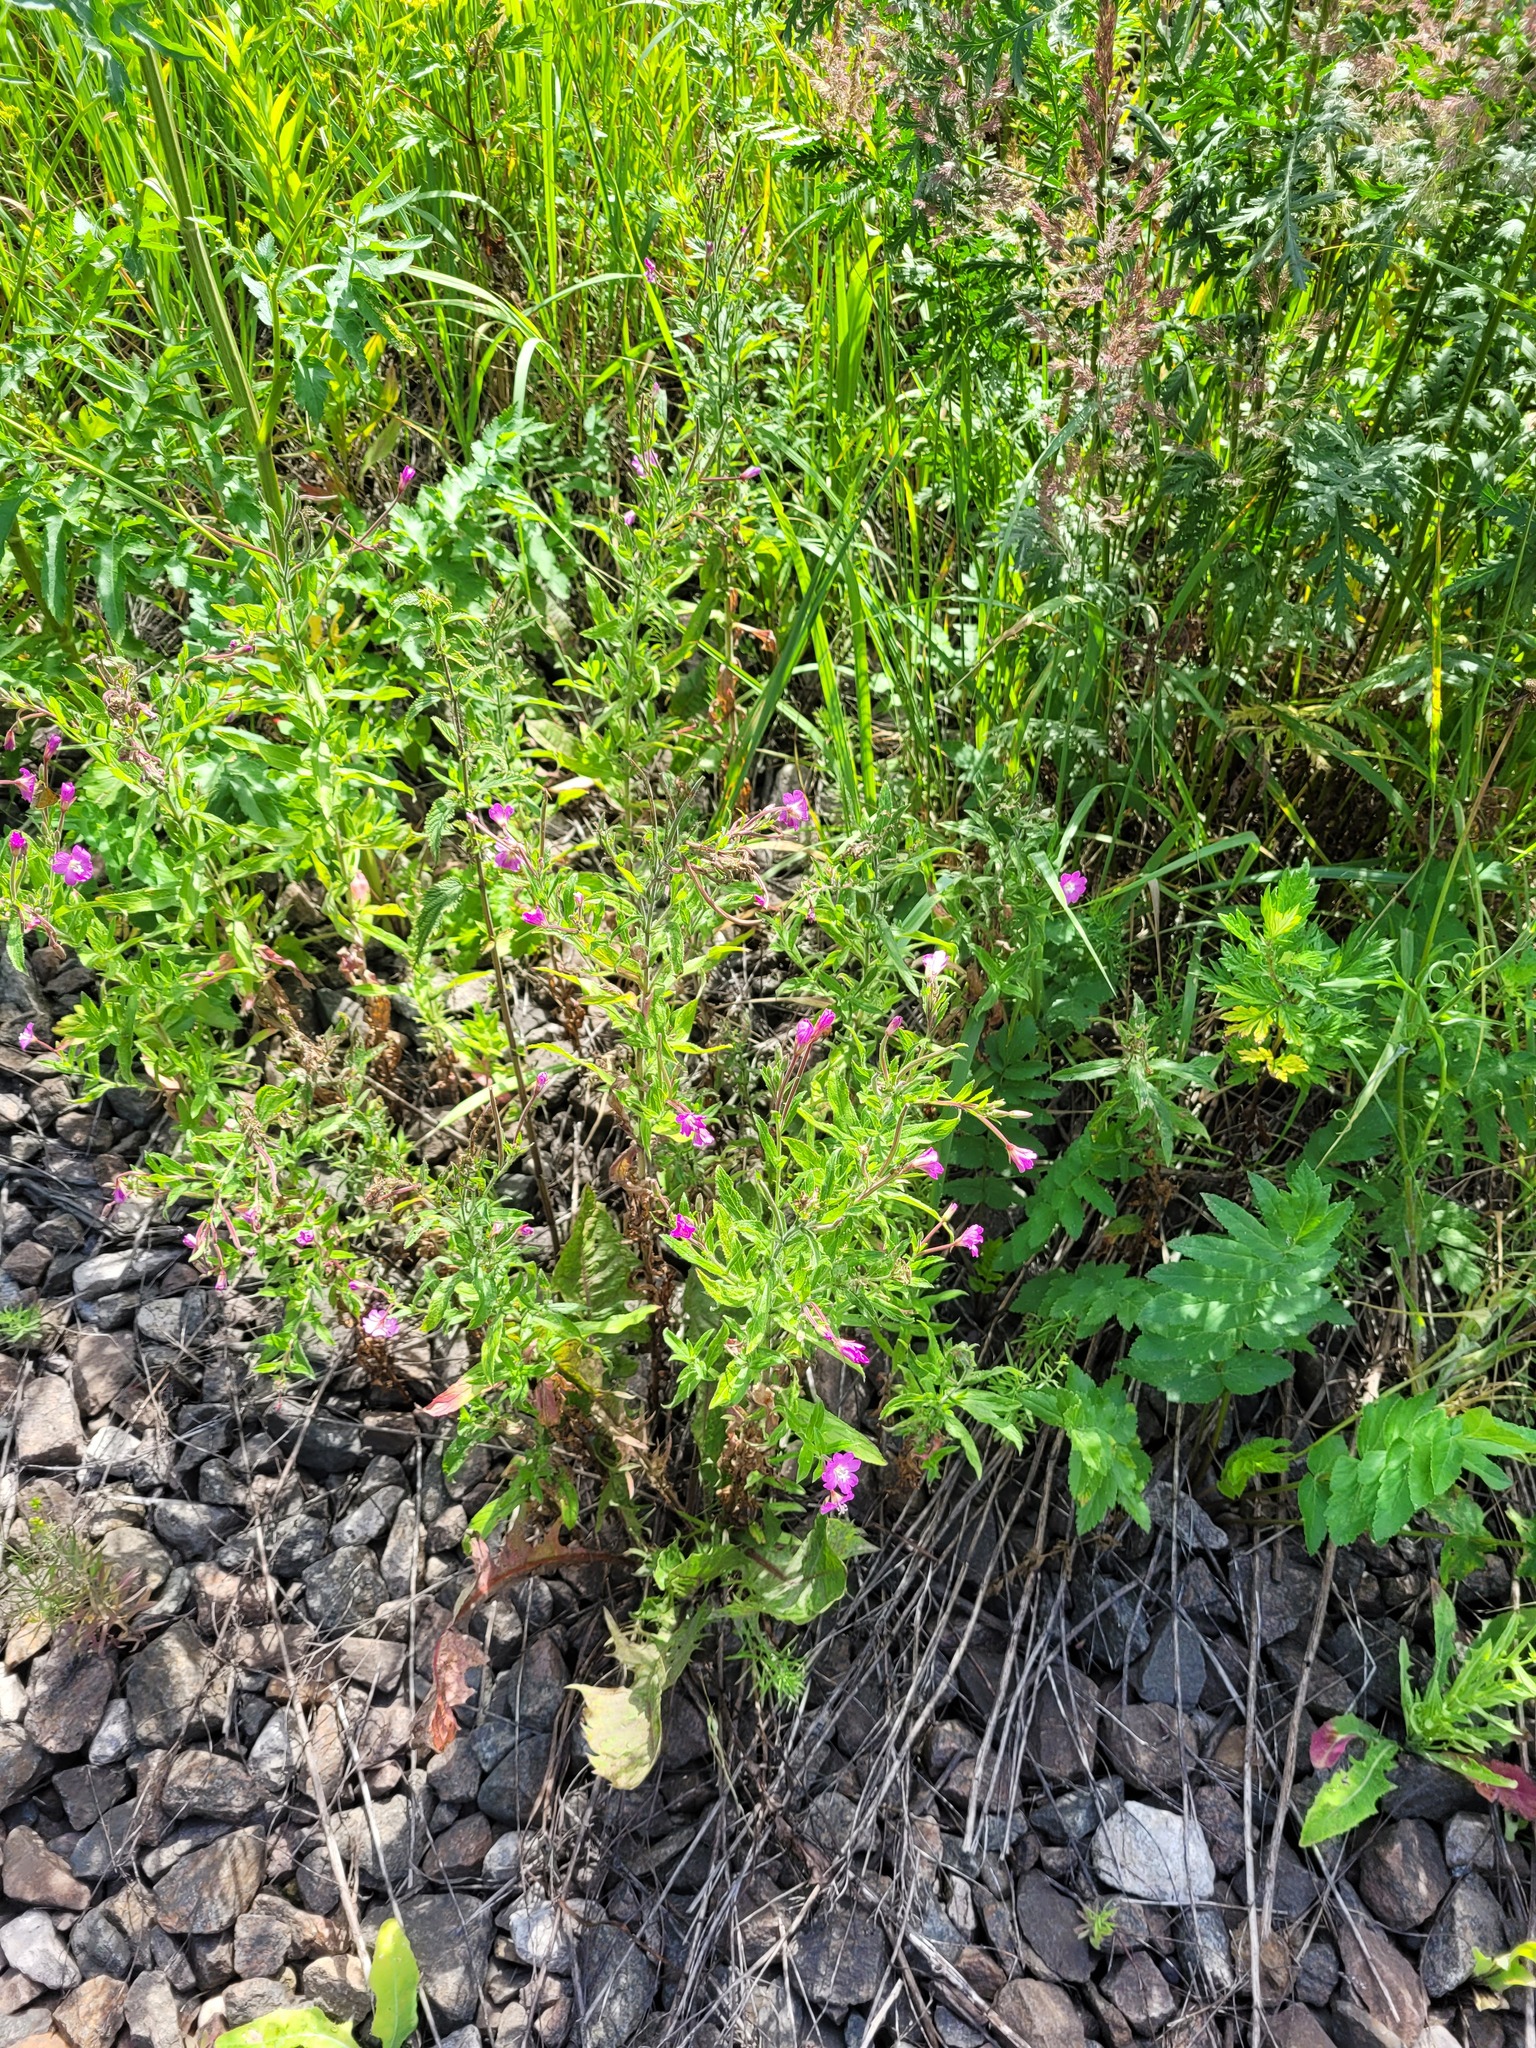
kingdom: Plantae
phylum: Tracheophyta
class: Magnoliopsida
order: Myrtales
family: Onagraceae
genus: Epilobium
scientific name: Epilobium hirsutum
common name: Great willowherb
